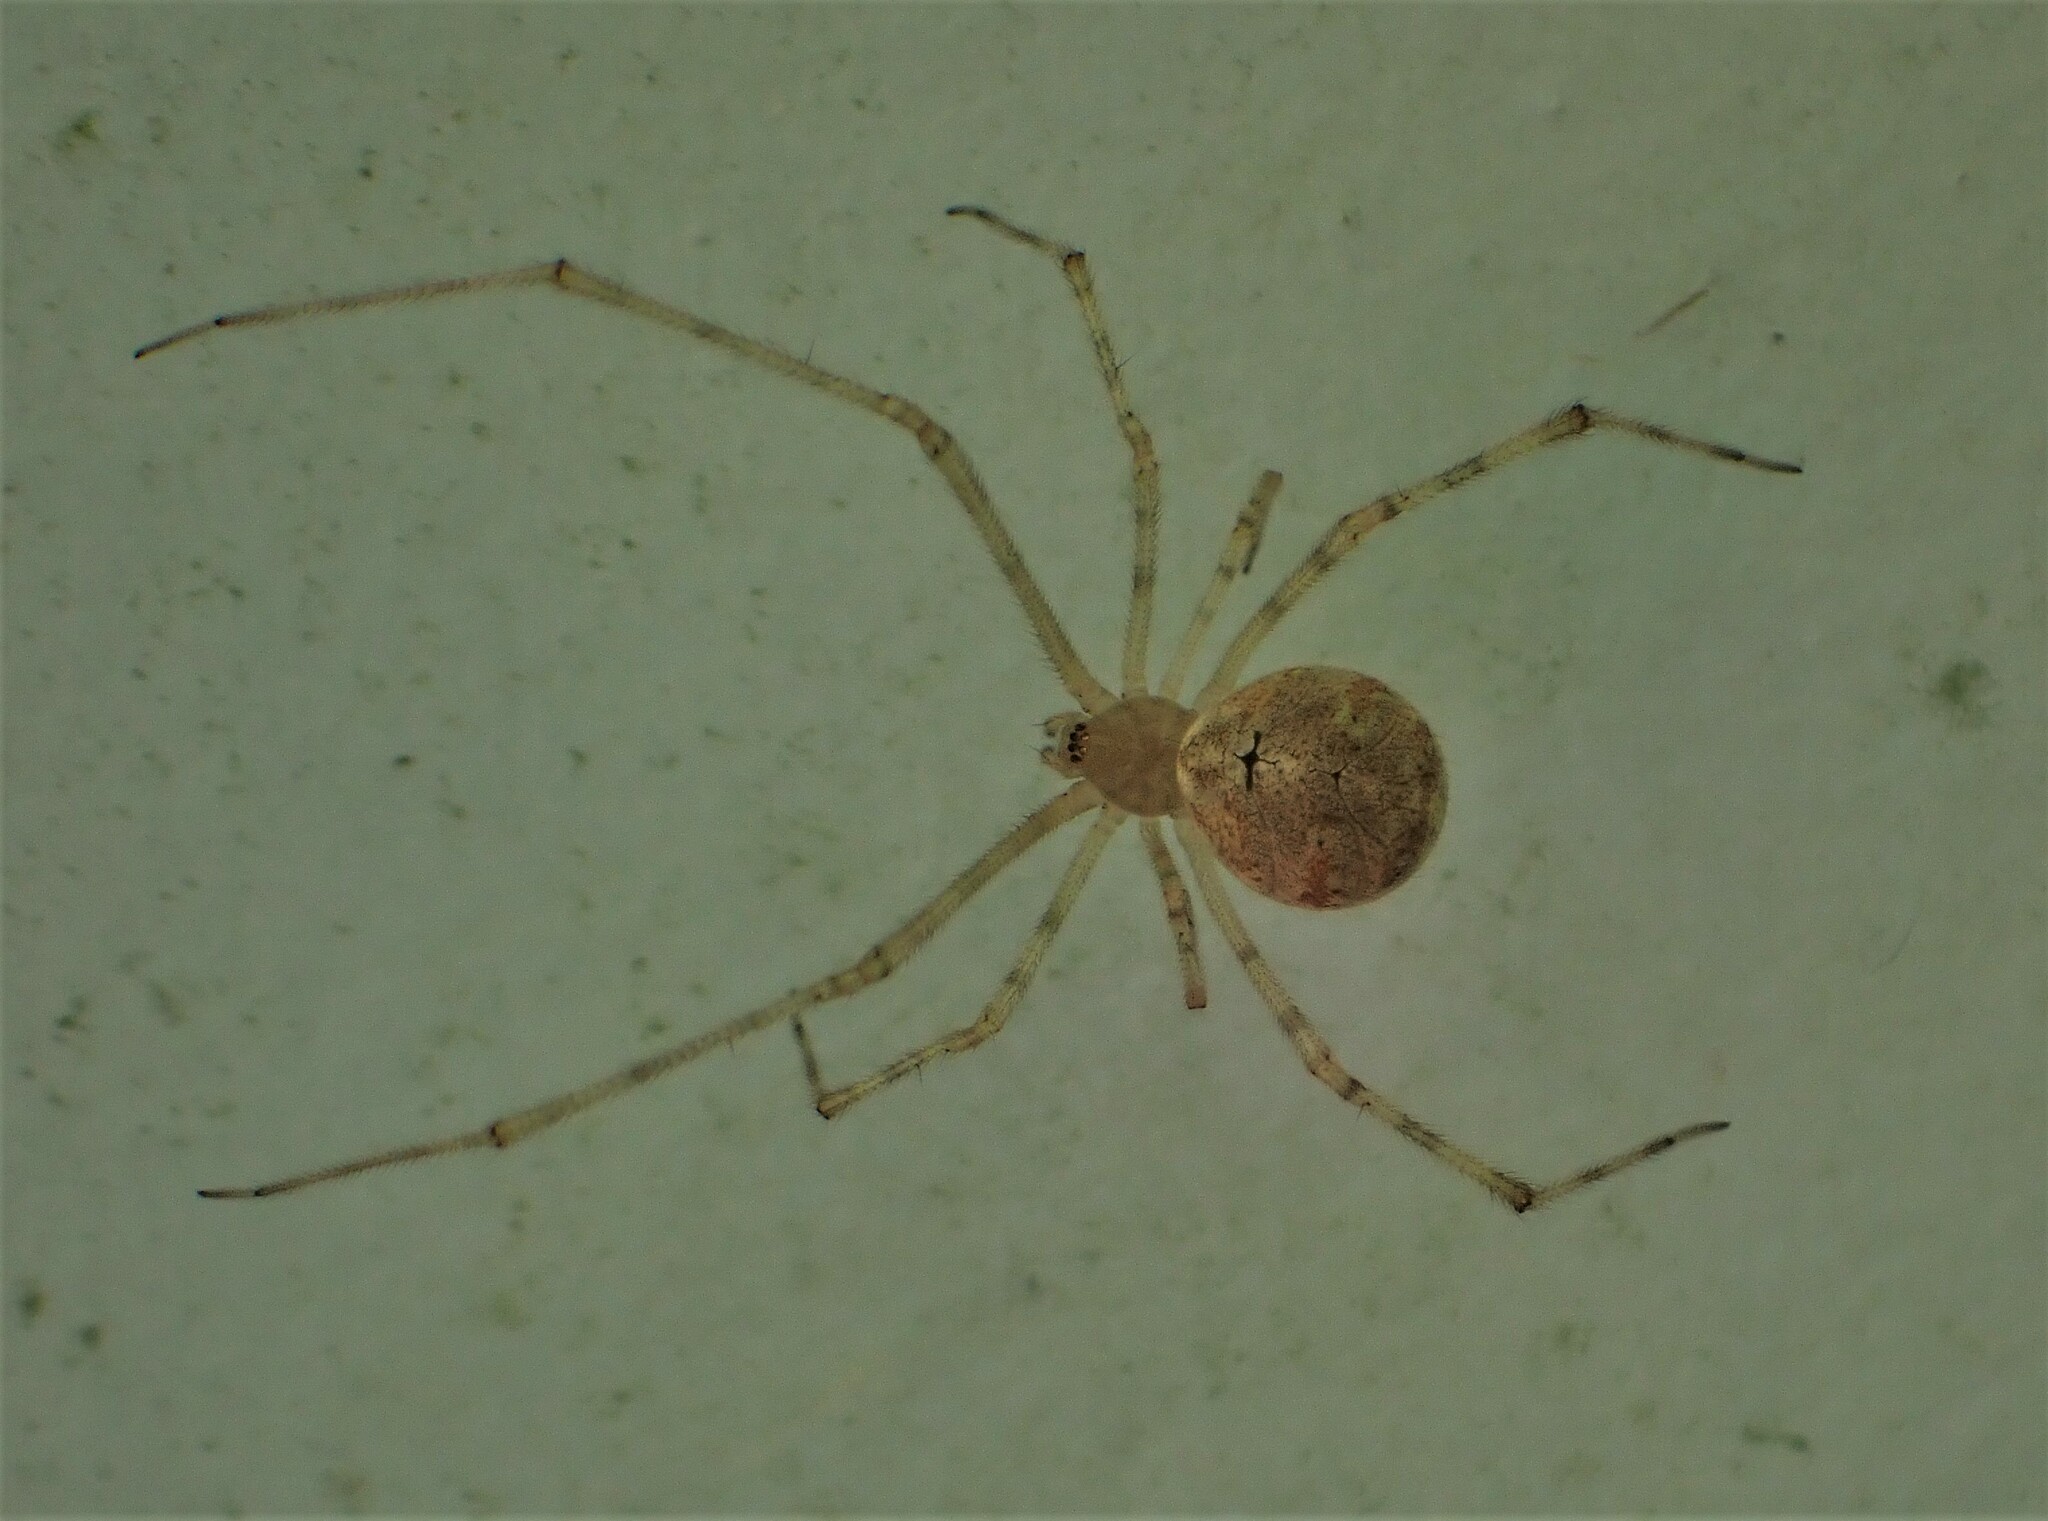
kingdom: Animalia
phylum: Arthropoda
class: Arachnida
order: Araneae
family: Theridiidae
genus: Cryptachaea
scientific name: Cryptachaea gigantipes
